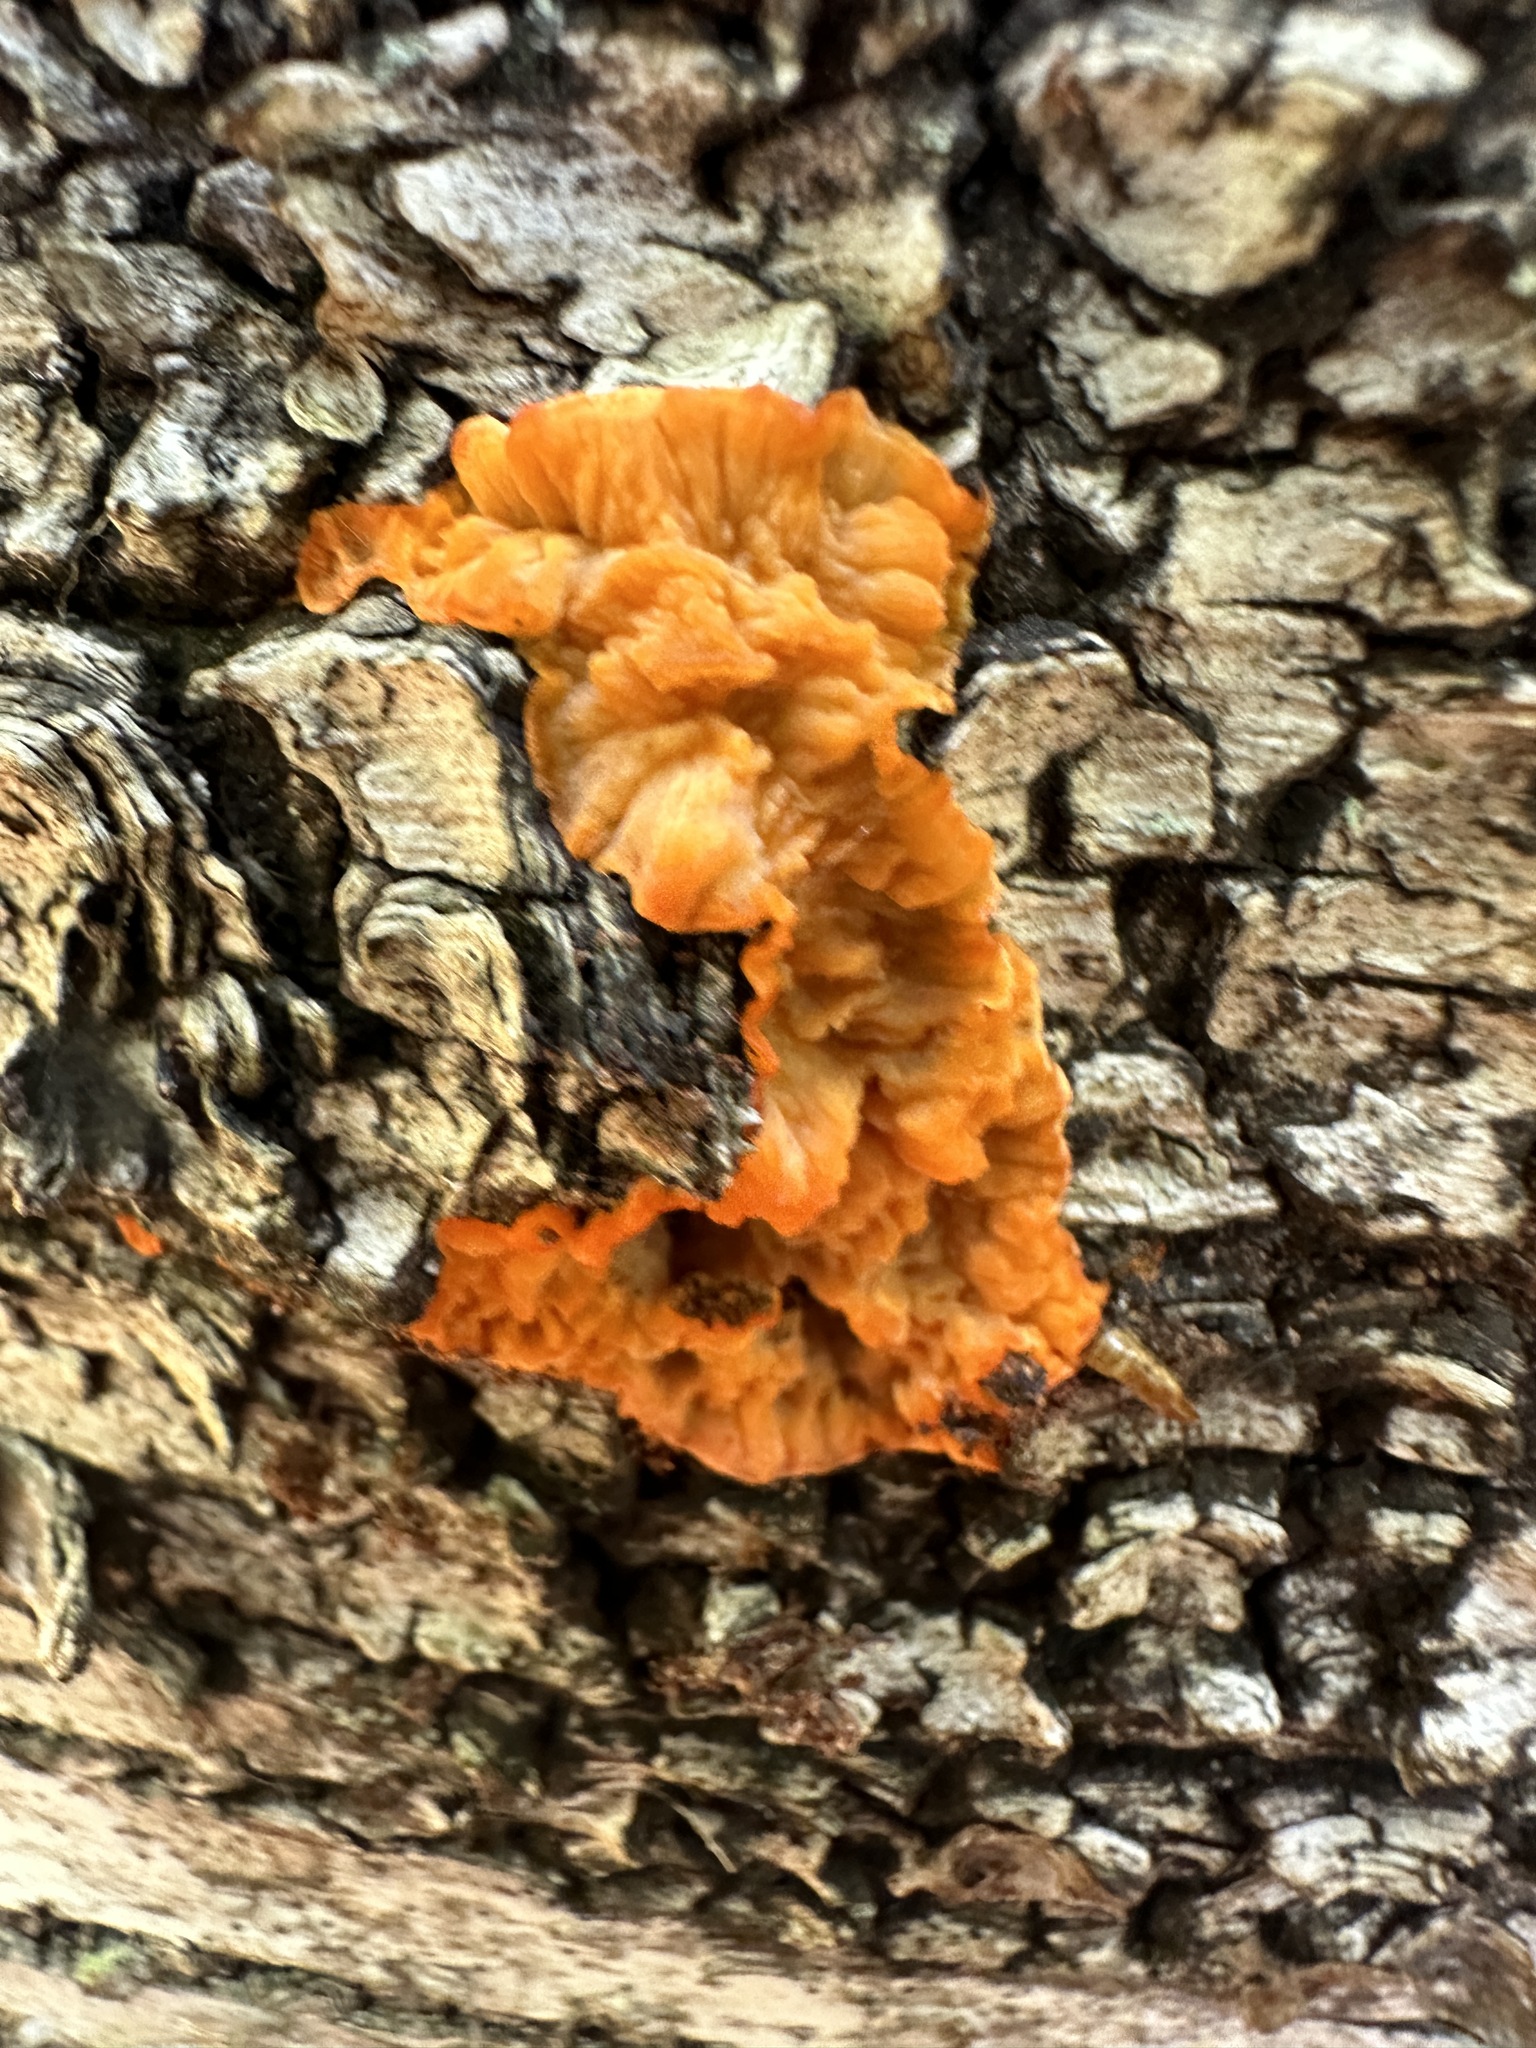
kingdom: Fungi
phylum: Basidiomycota
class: Agaricomycetes
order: Polyporales
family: Meruliaceae
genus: Phlebia
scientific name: Phlebia radiata
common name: Wrinkled crust
